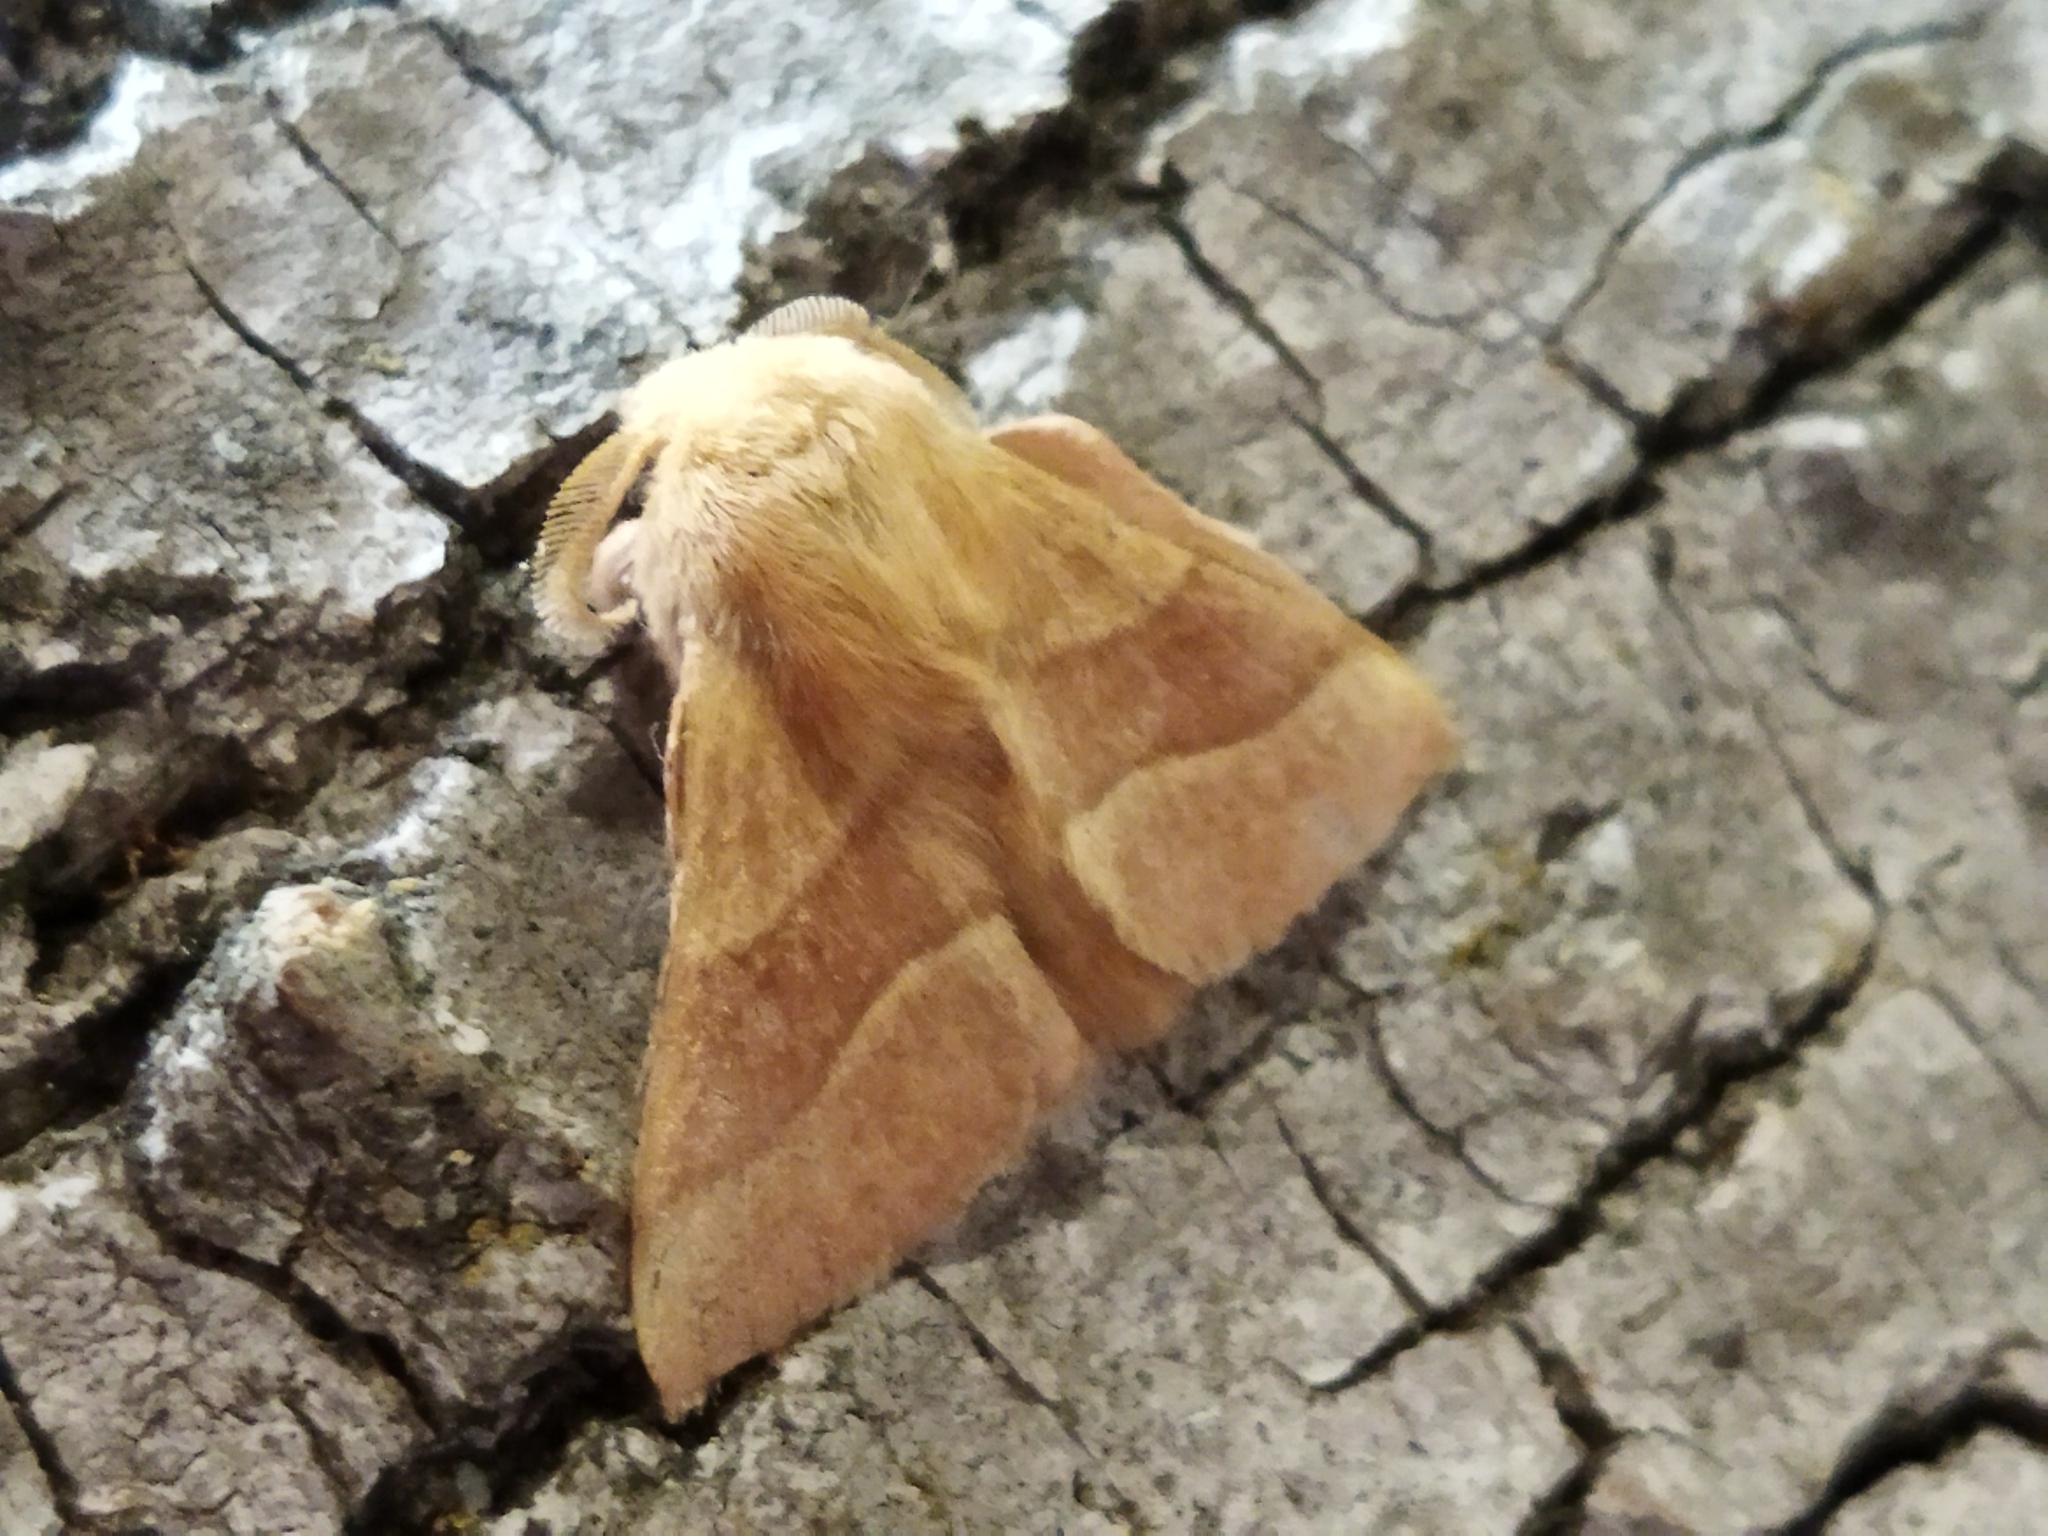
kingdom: Animalia
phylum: Arthropoda
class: Insecta
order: Lepidoptera
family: Lasiocampidae
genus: Malacosoma
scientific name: Malacosoma neustria
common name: The lackey
